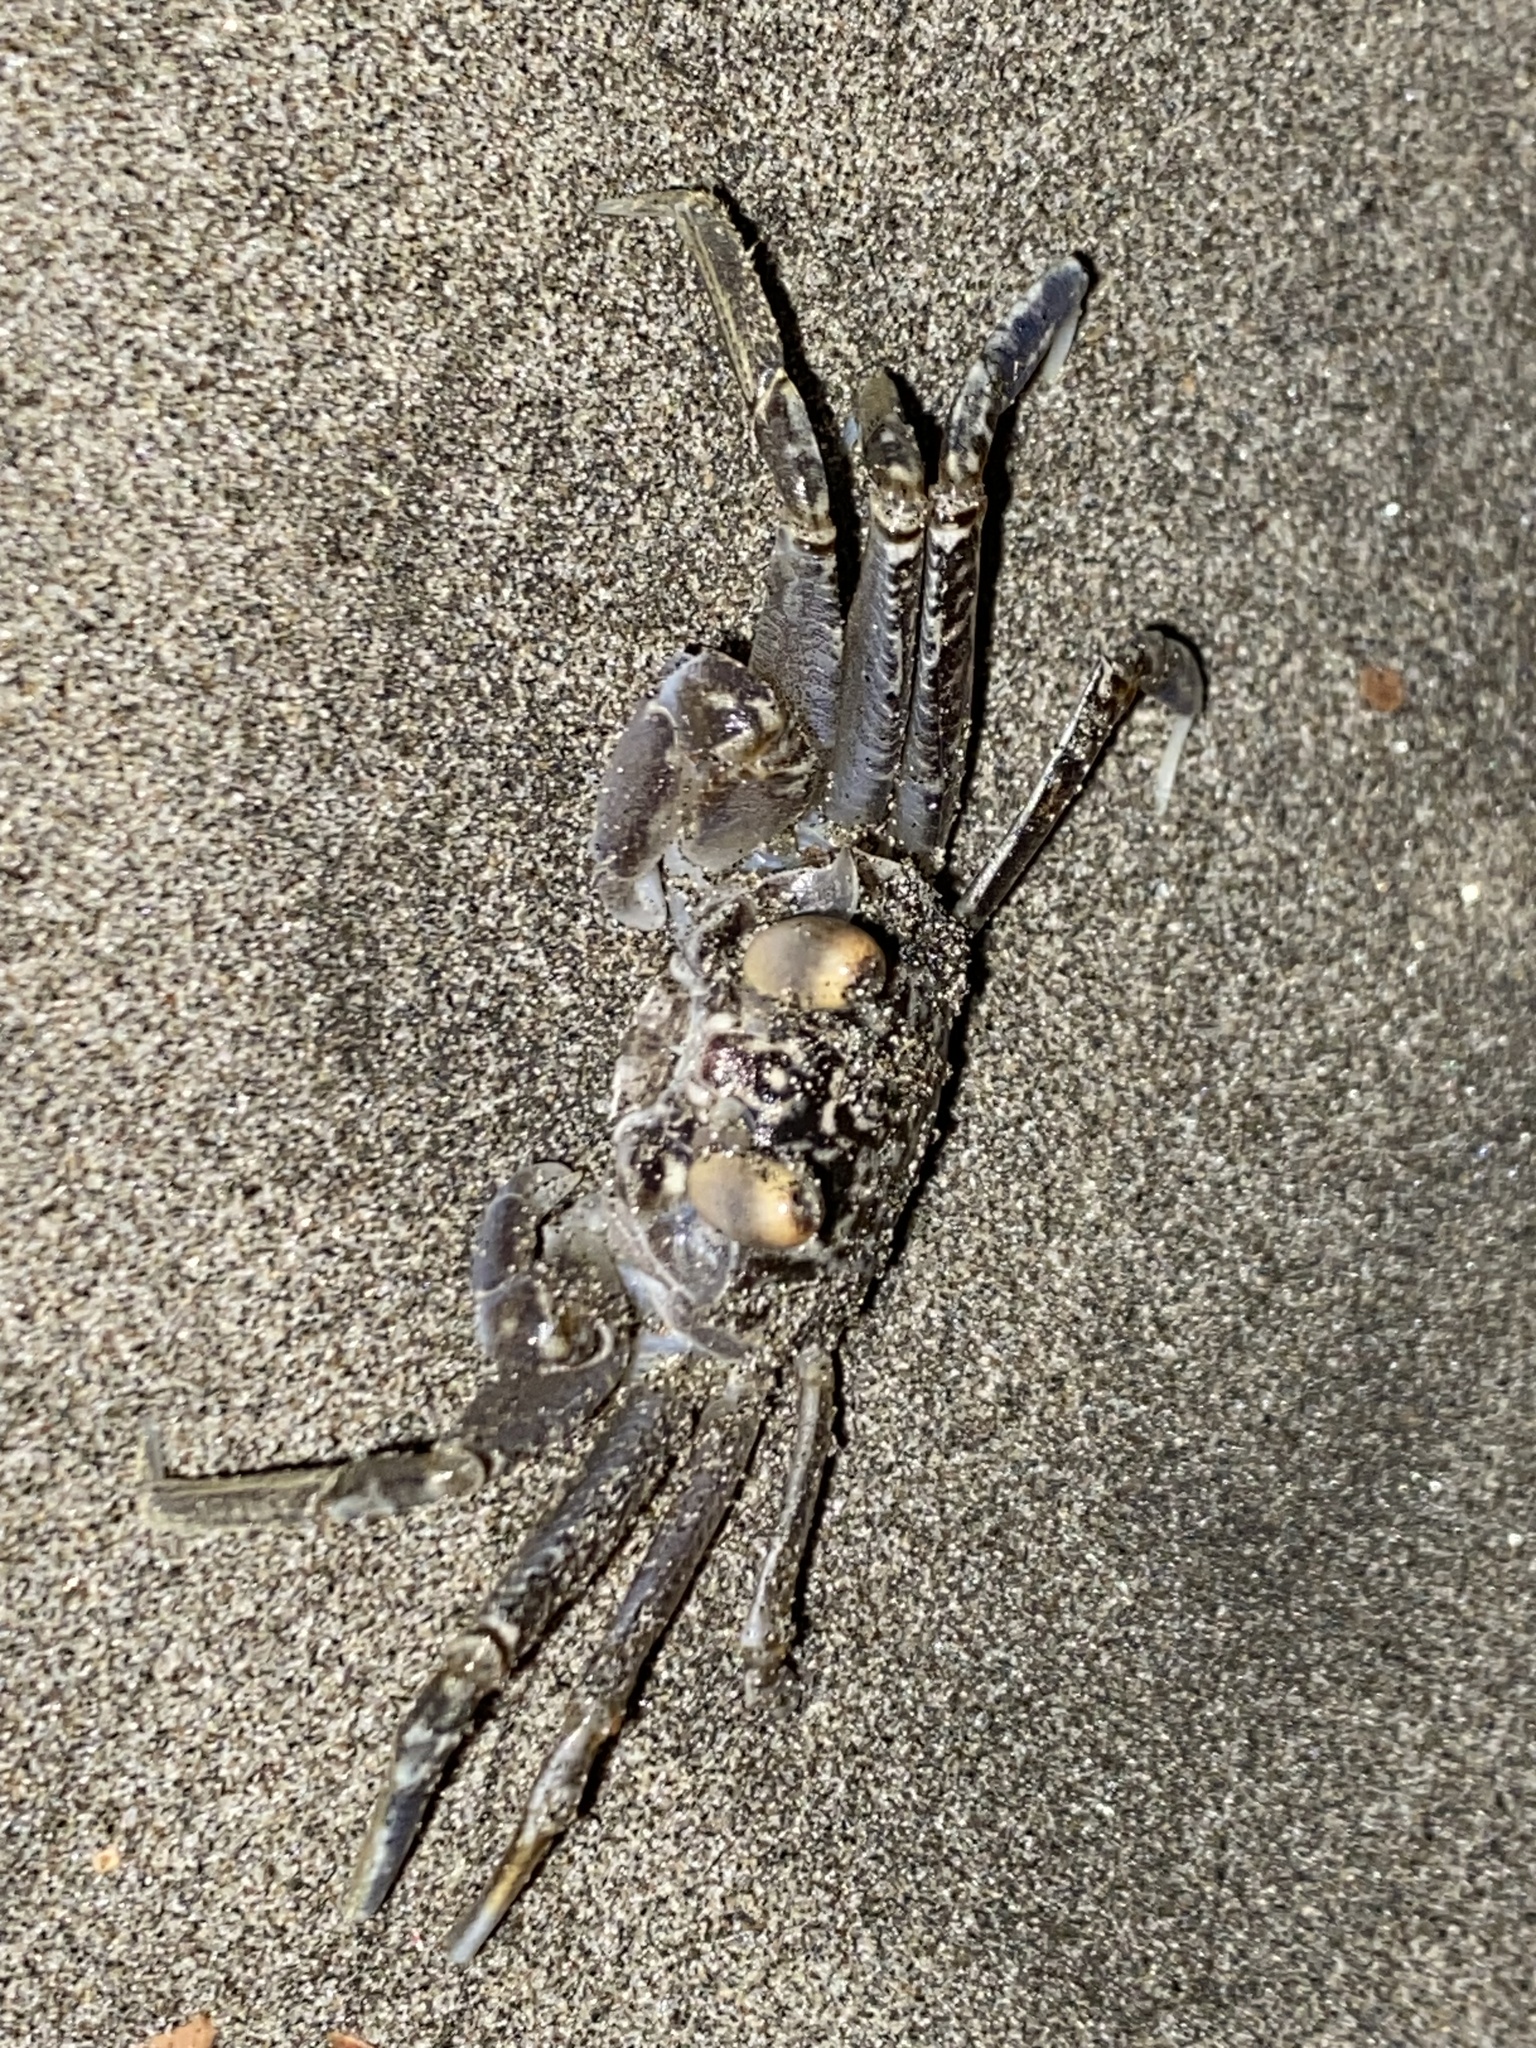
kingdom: Animalia
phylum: Arthropoda
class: Malacostraca
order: Decapoda
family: Ocypodidae
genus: Ocypode
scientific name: Ocypode occidentalis
